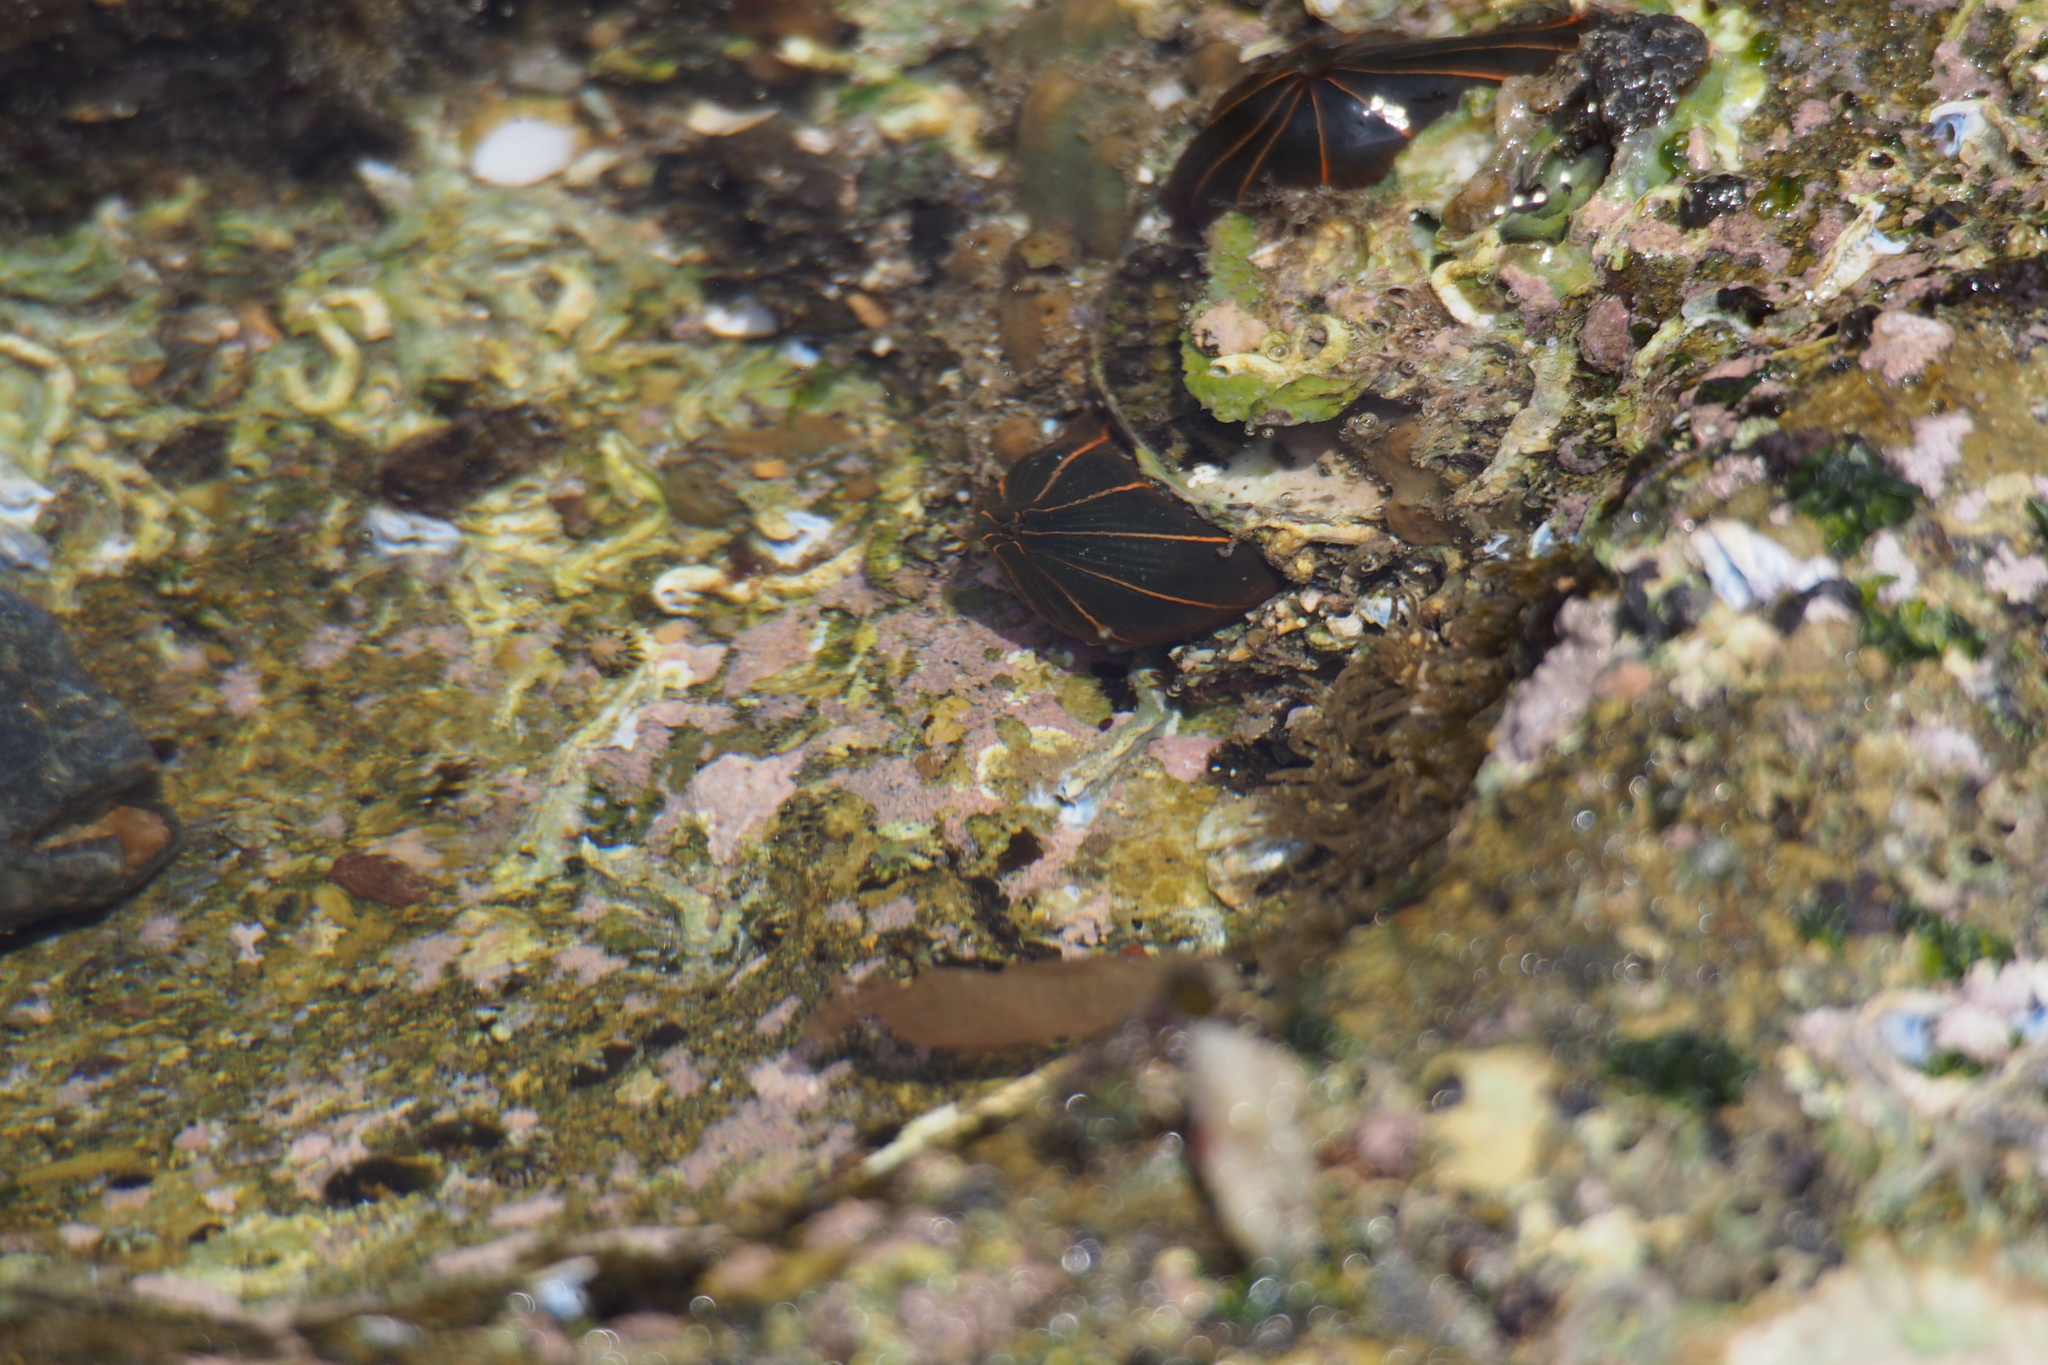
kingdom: Animalia
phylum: Cnidaria
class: Anthozoa
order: Actiniaria
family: Diadumenidae
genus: Diadumene
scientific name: Diadumene lineata
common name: Orange-striped anemone
